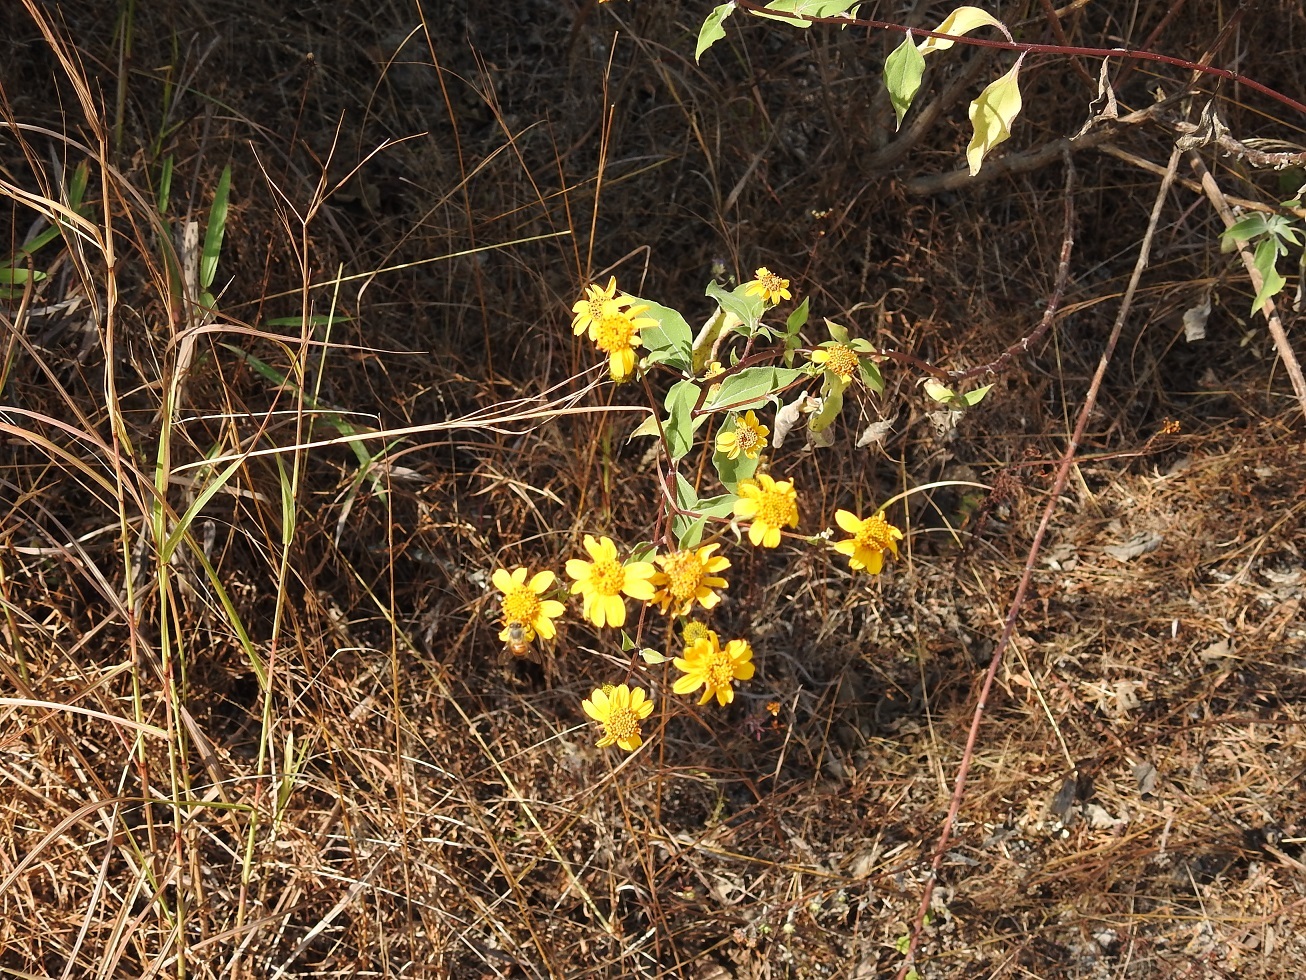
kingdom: Plantae
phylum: Tracheophyta
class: Magnoliopsida
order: Asterales
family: Asteraceae
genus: Verbesina
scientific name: Verbesina hypoglauca
